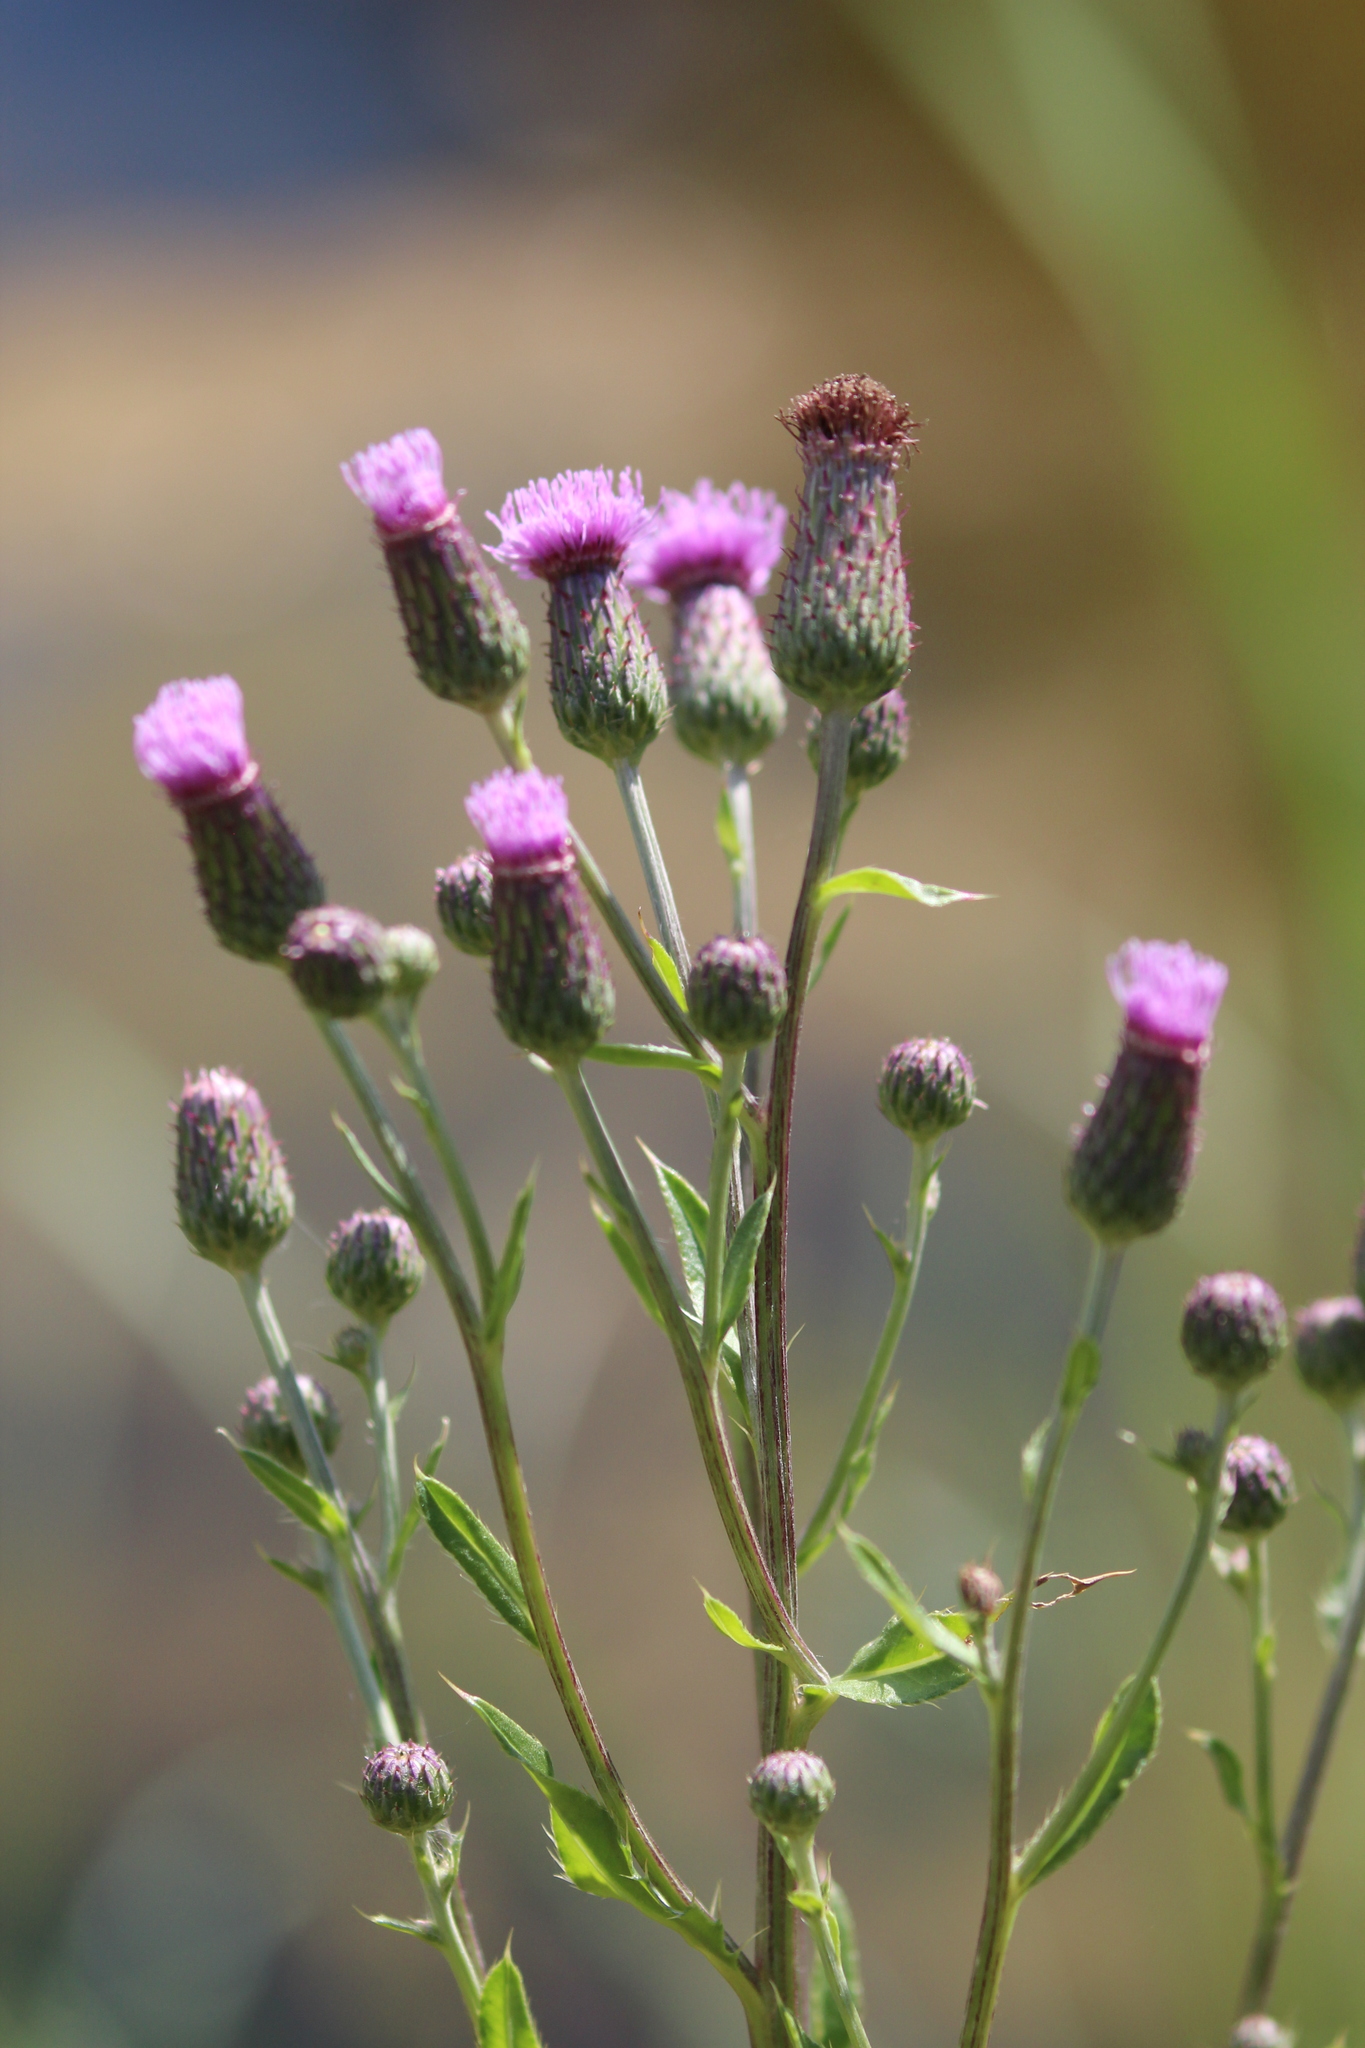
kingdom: Plantae
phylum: Tracheophyta
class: Magnoliopsida
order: Asterales
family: Asteraceae
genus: Cirsium
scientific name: Cirsium arvense
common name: Creeping thistle
